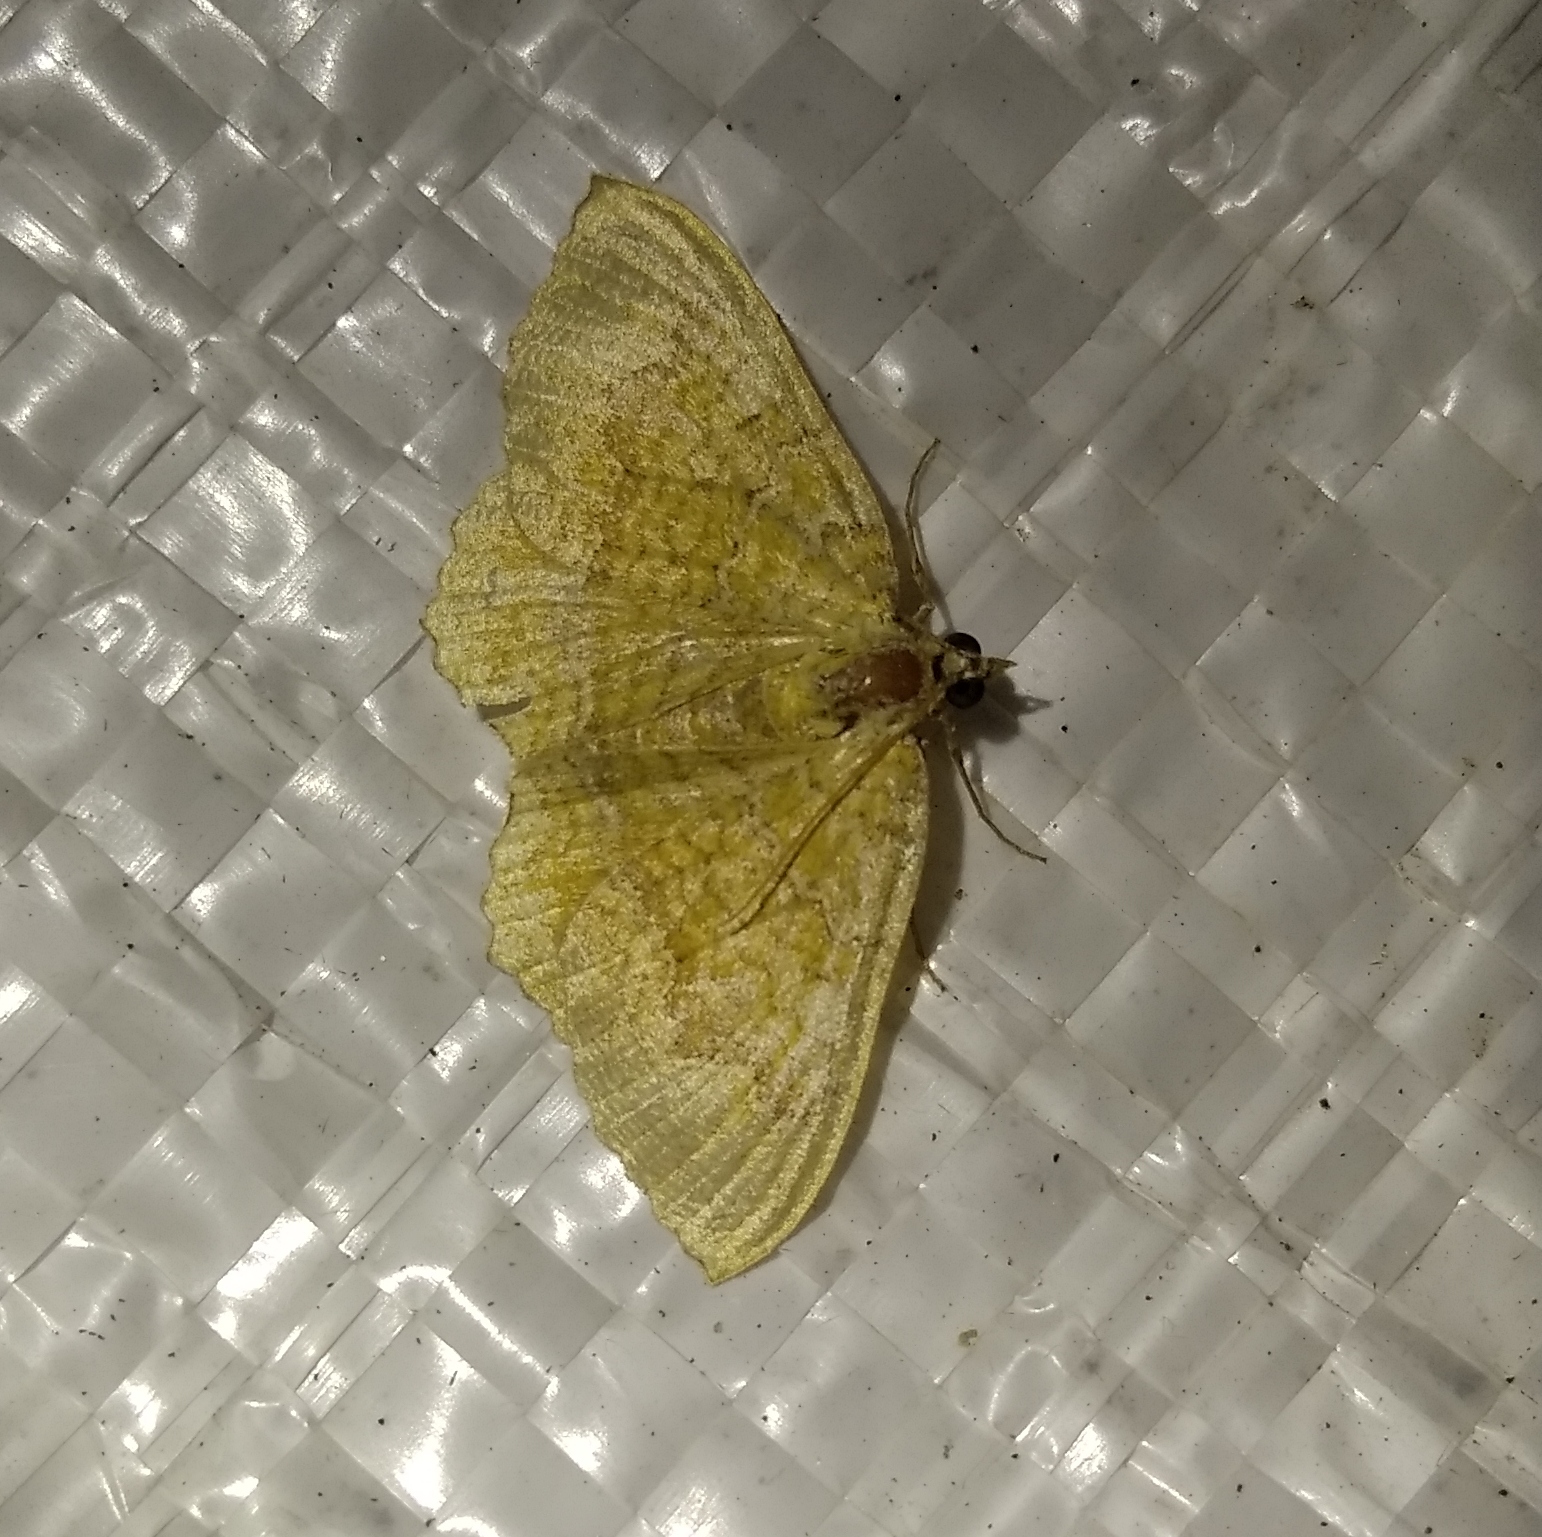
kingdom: Animalia
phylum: Arthropoda
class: Insecta
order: Lepidoptera
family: Geometridae
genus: Camptogramma
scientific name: Camptogramma bilineata
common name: Yellow shell
